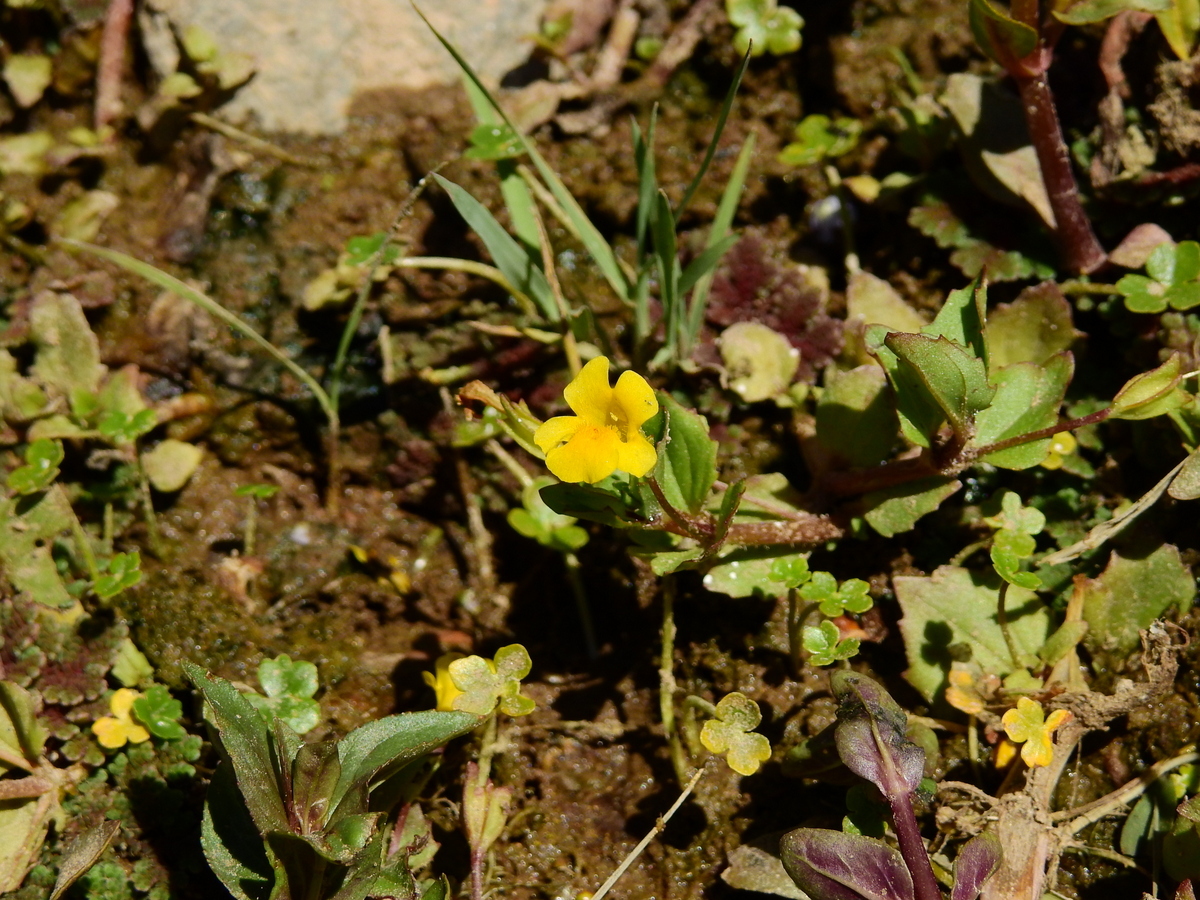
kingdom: Plantae
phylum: Tracheophyta
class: Magnoliopsida
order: Lamiales
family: Phrymaceae
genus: Erythranthe
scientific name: Erythranthe glabrata
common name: Round-leaved monkeyflower
